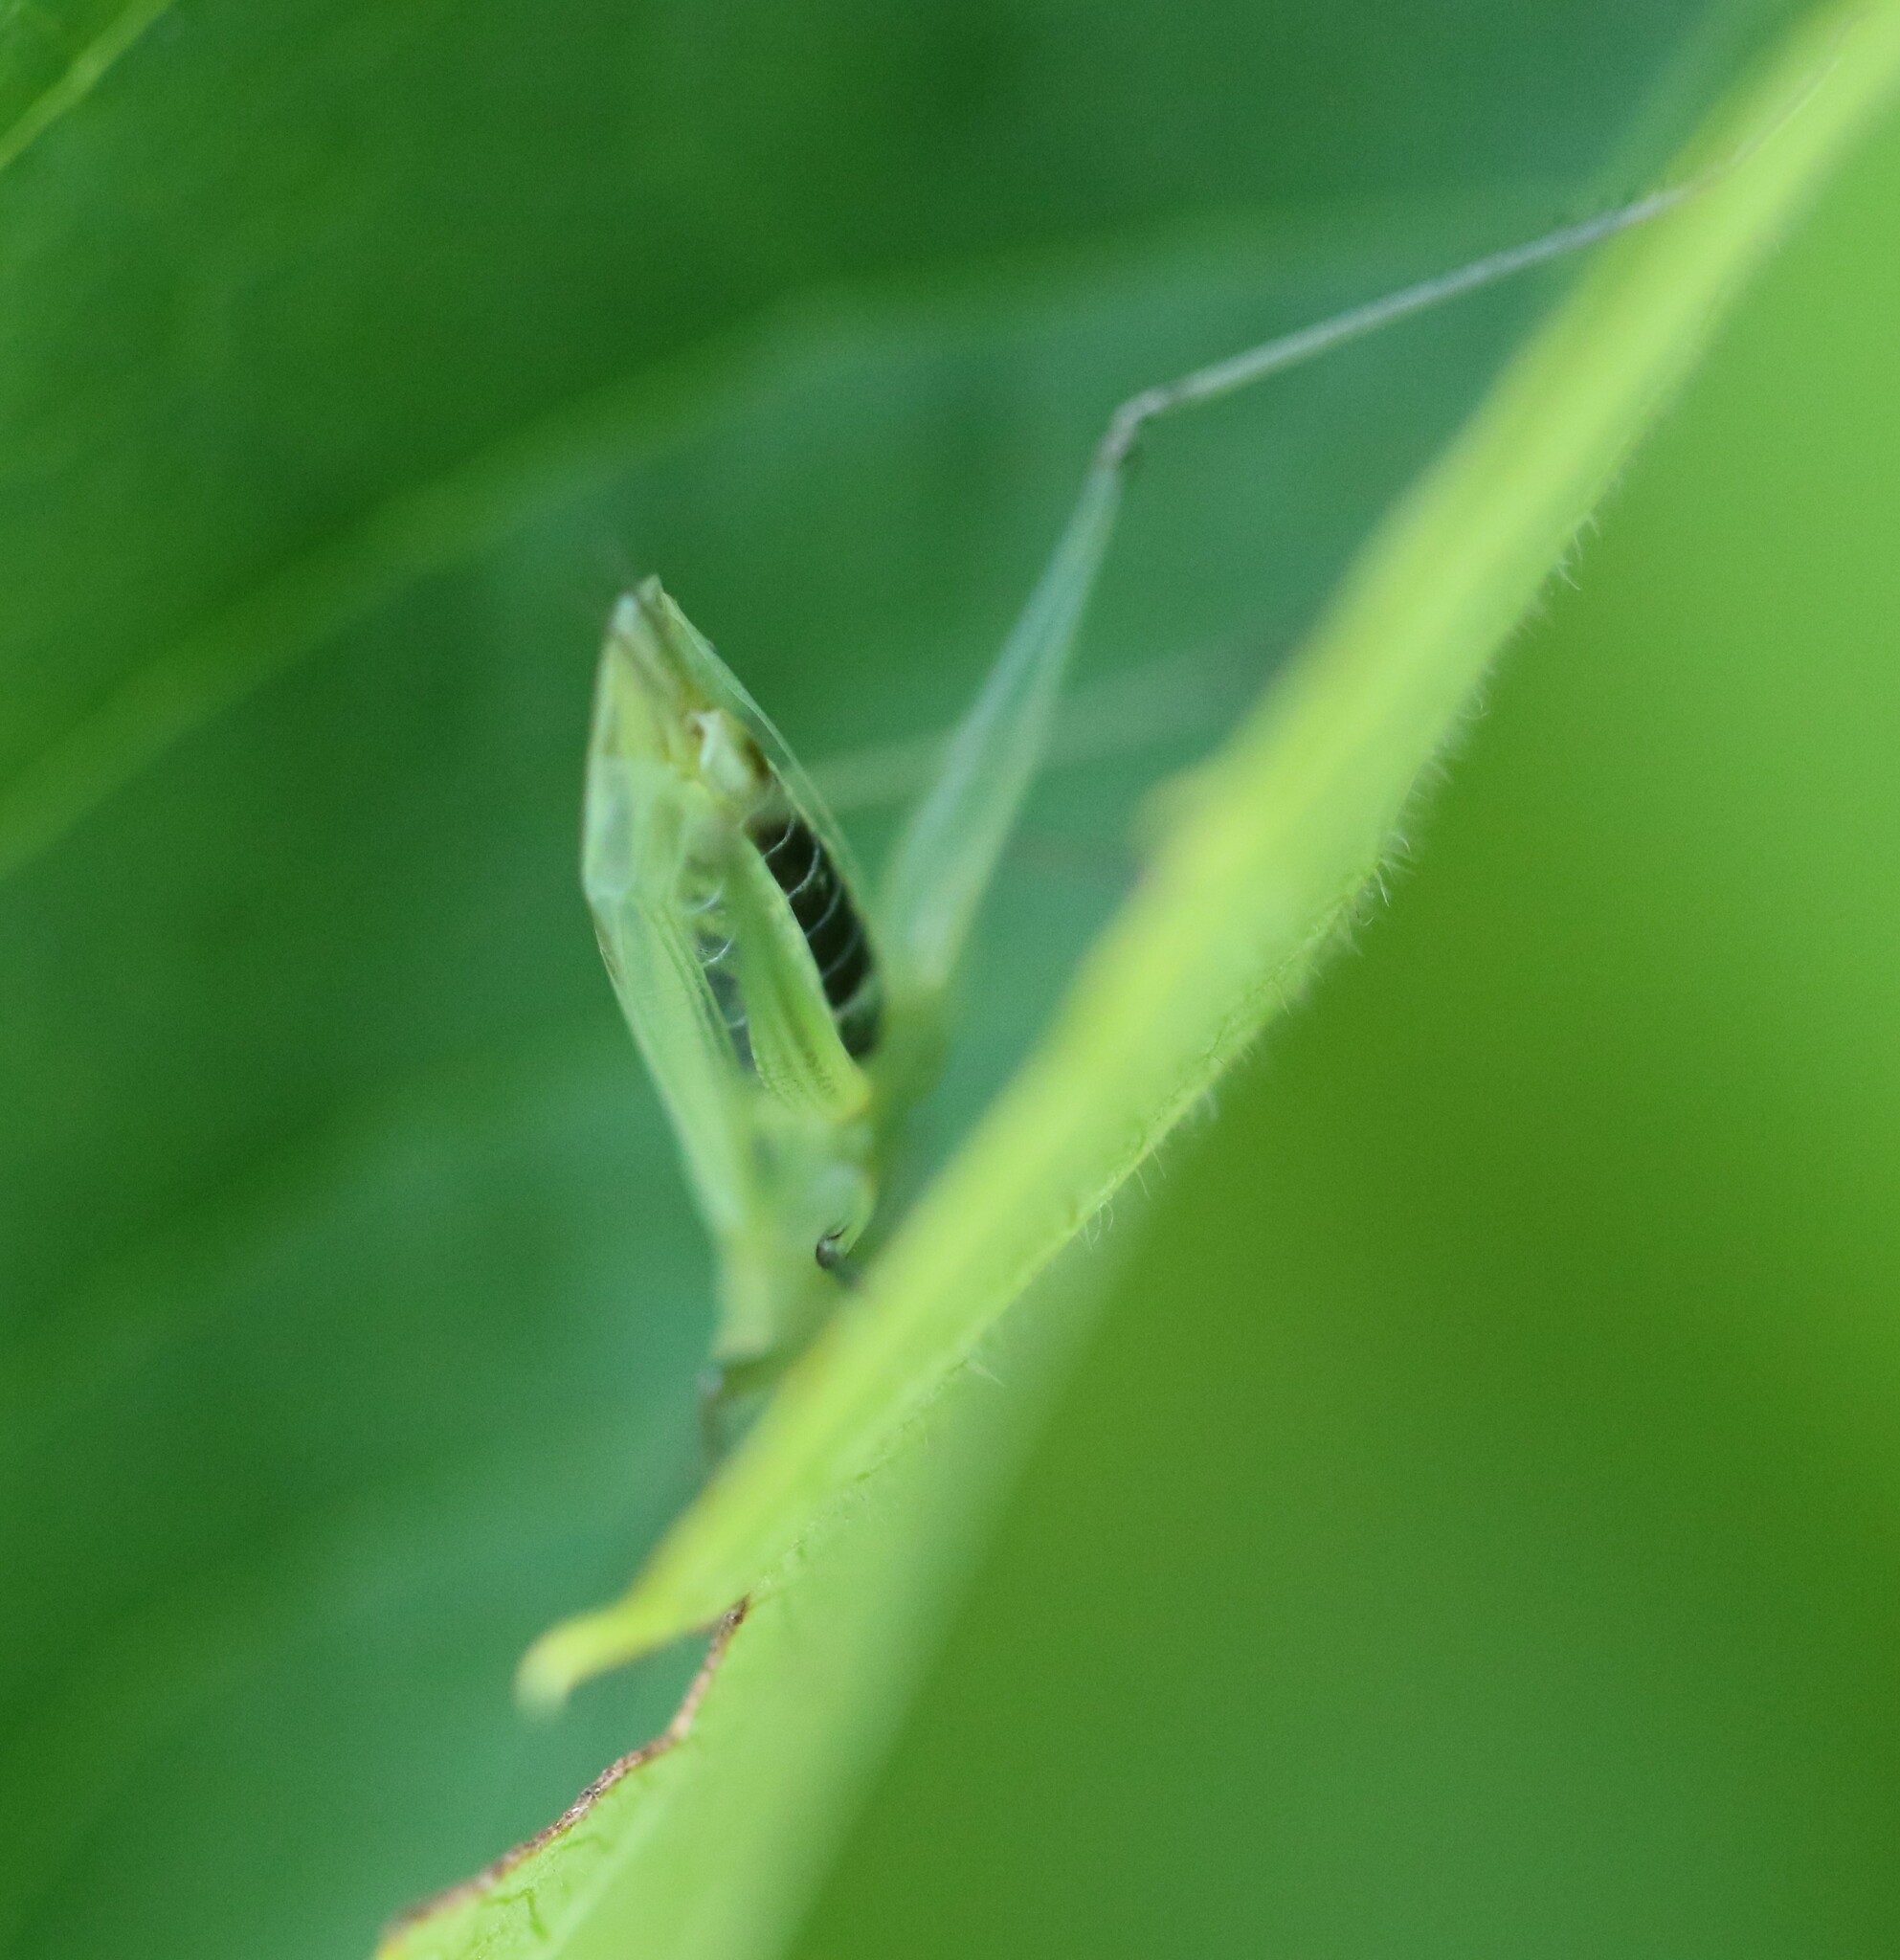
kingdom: Animalia
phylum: Arthropoda
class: Insecta
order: Orthoptera
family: Gryllidae
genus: Oecanthus
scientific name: Oecanthus nigricornis
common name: Black-horned tree cricket
